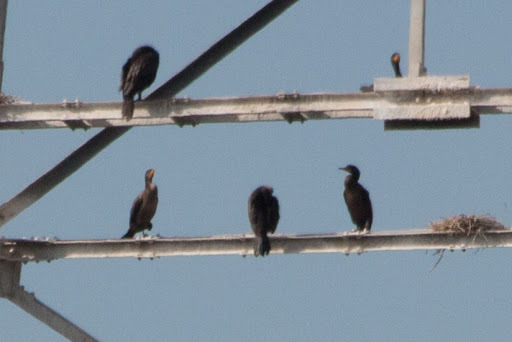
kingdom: Animalia
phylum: Chordata
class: Aves
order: Suliformes
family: Phalacrocoracidae
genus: Phalacrocorax
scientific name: Phalacrocorax auritus
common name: Double-crested cormorant
